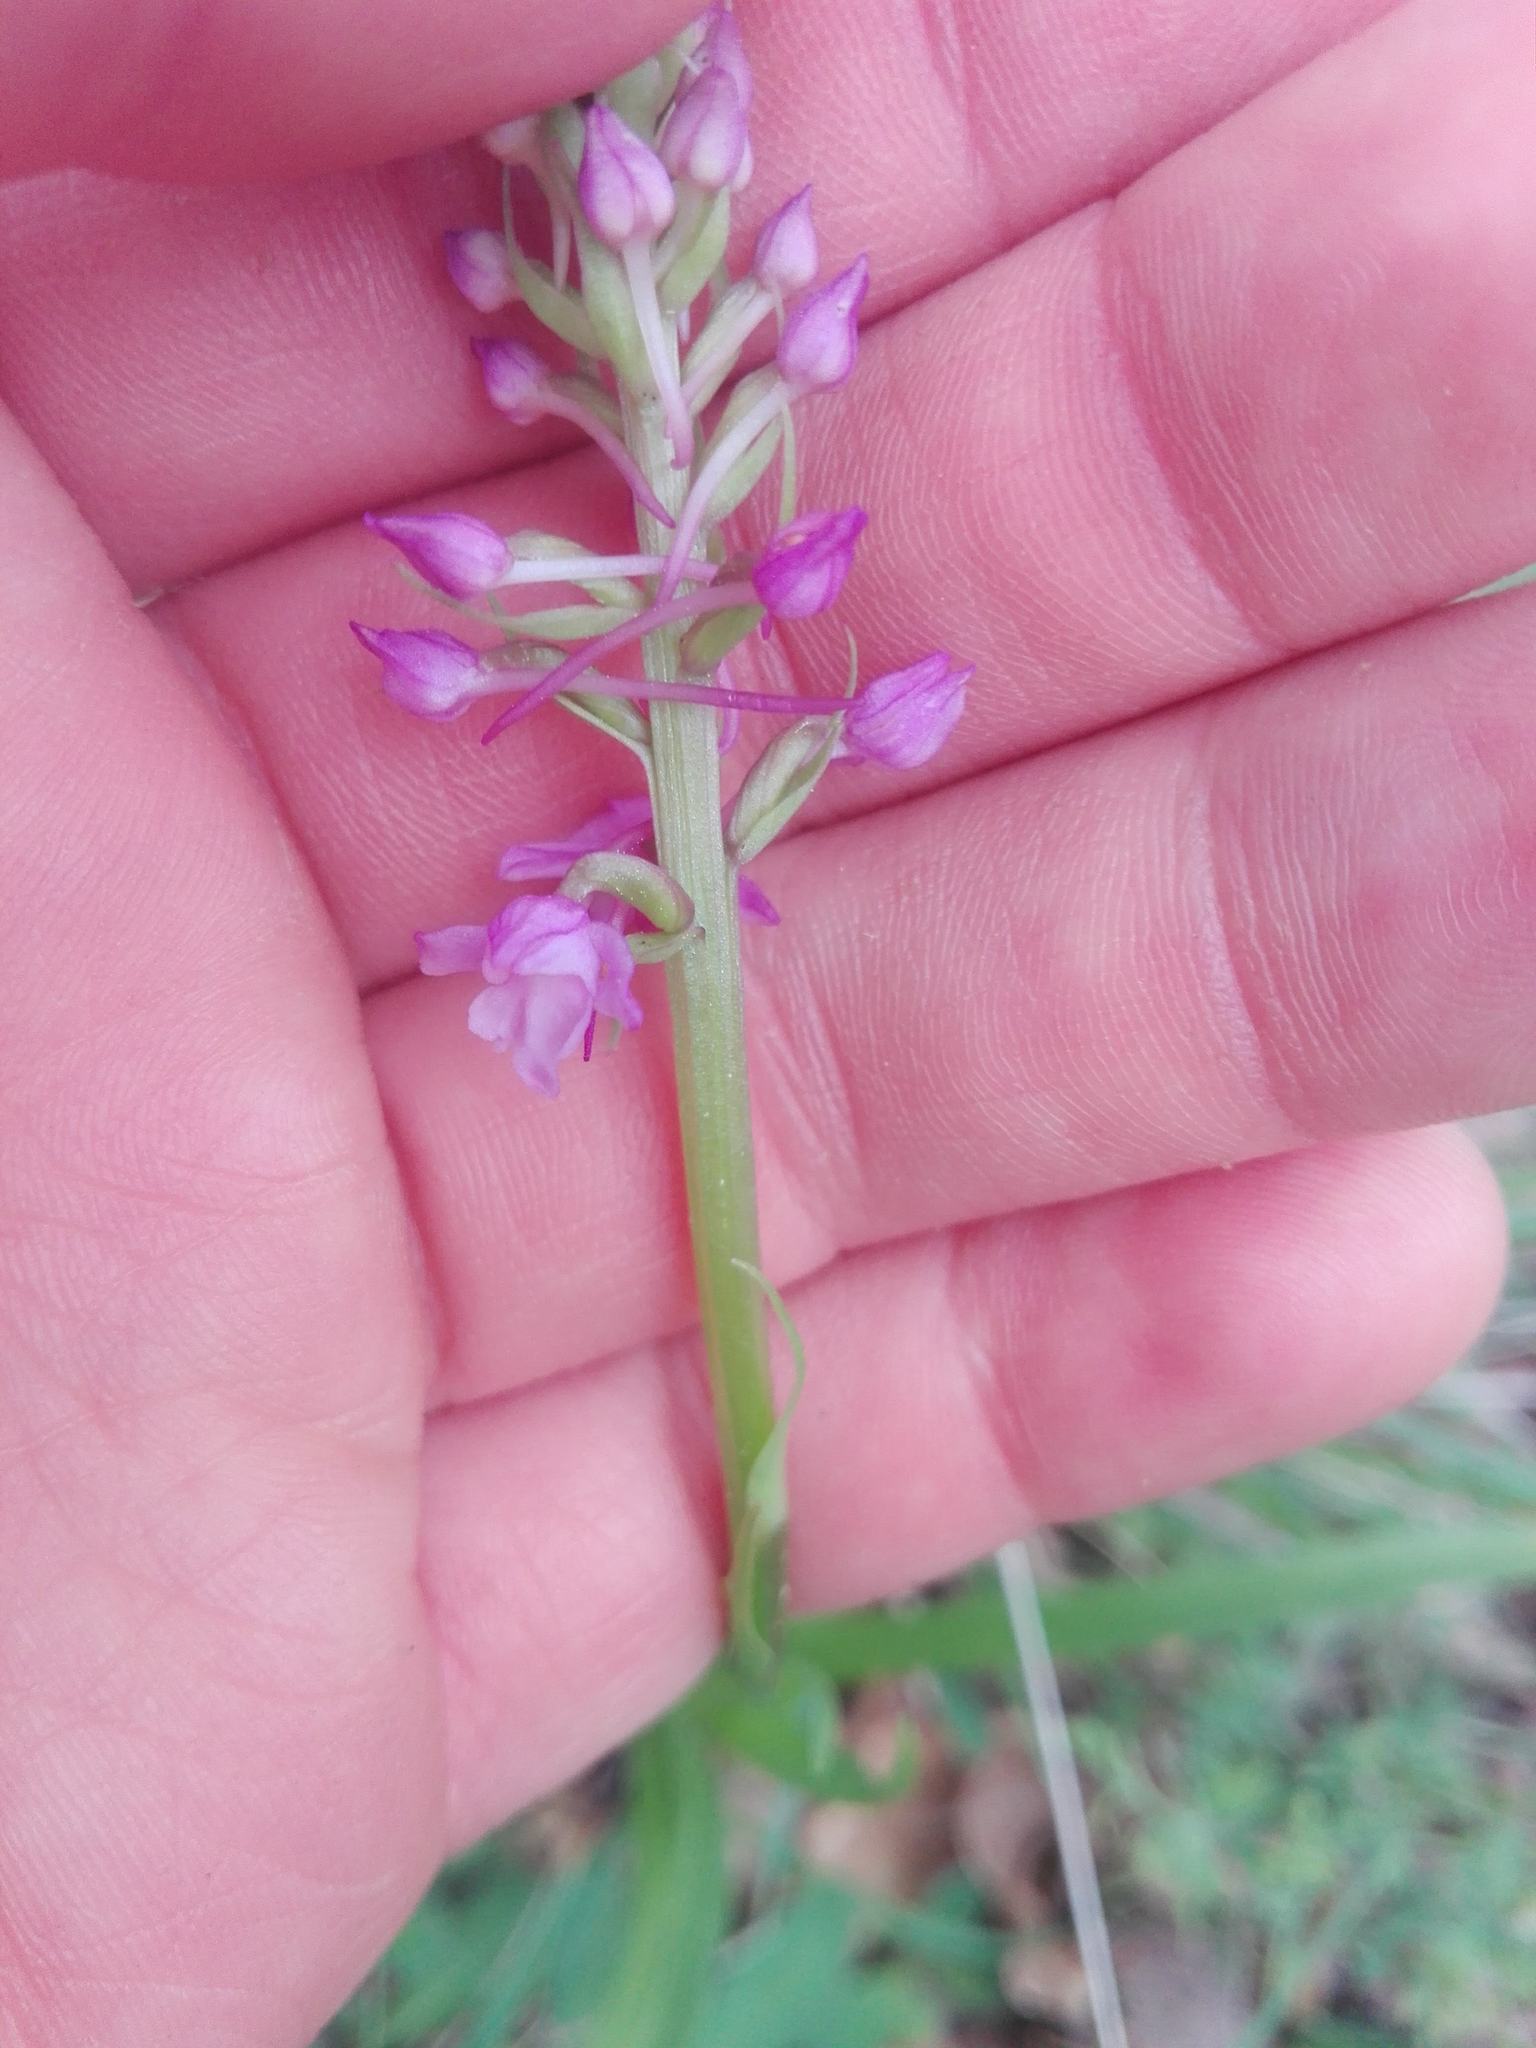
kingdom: Plantae
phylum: Tracheophyta
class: Liliopsida
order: Asparagales
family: Orchidaceae
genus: Gymnadenia
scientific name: Gymnadenia conopsea
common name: Fragrant orchid
